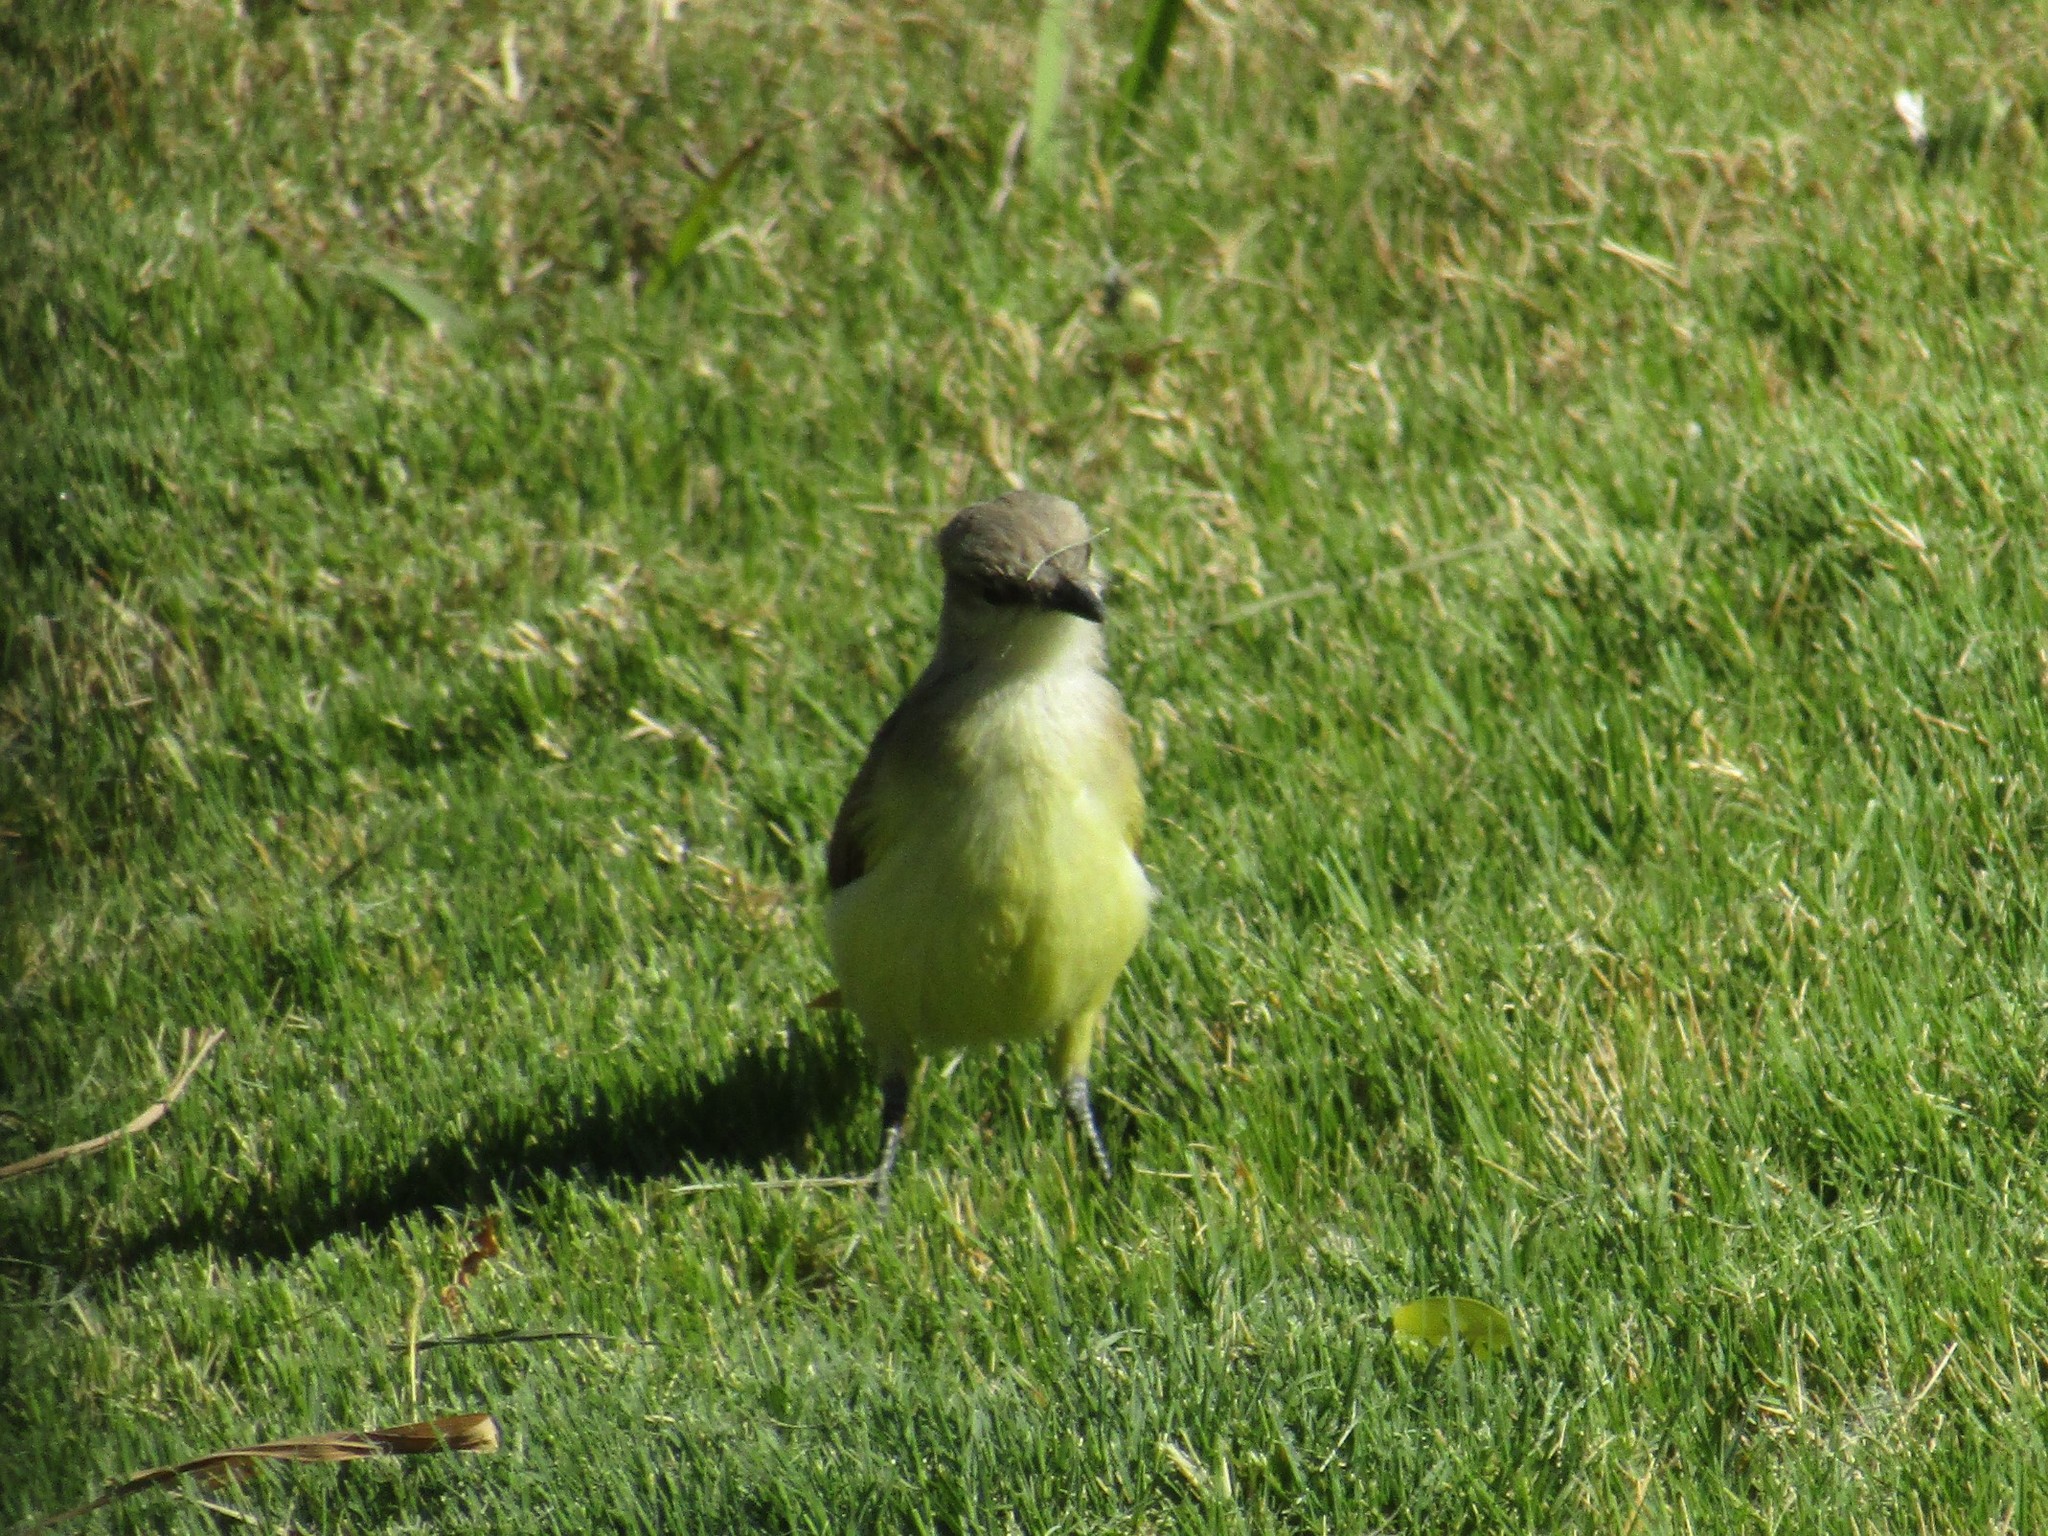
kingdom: Animalia
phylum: Chordata
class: Aves
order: Passeriformes
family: Tyrannidae
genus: Machetornis
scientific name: Machetornis rixosa
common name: Cattle tyrant
